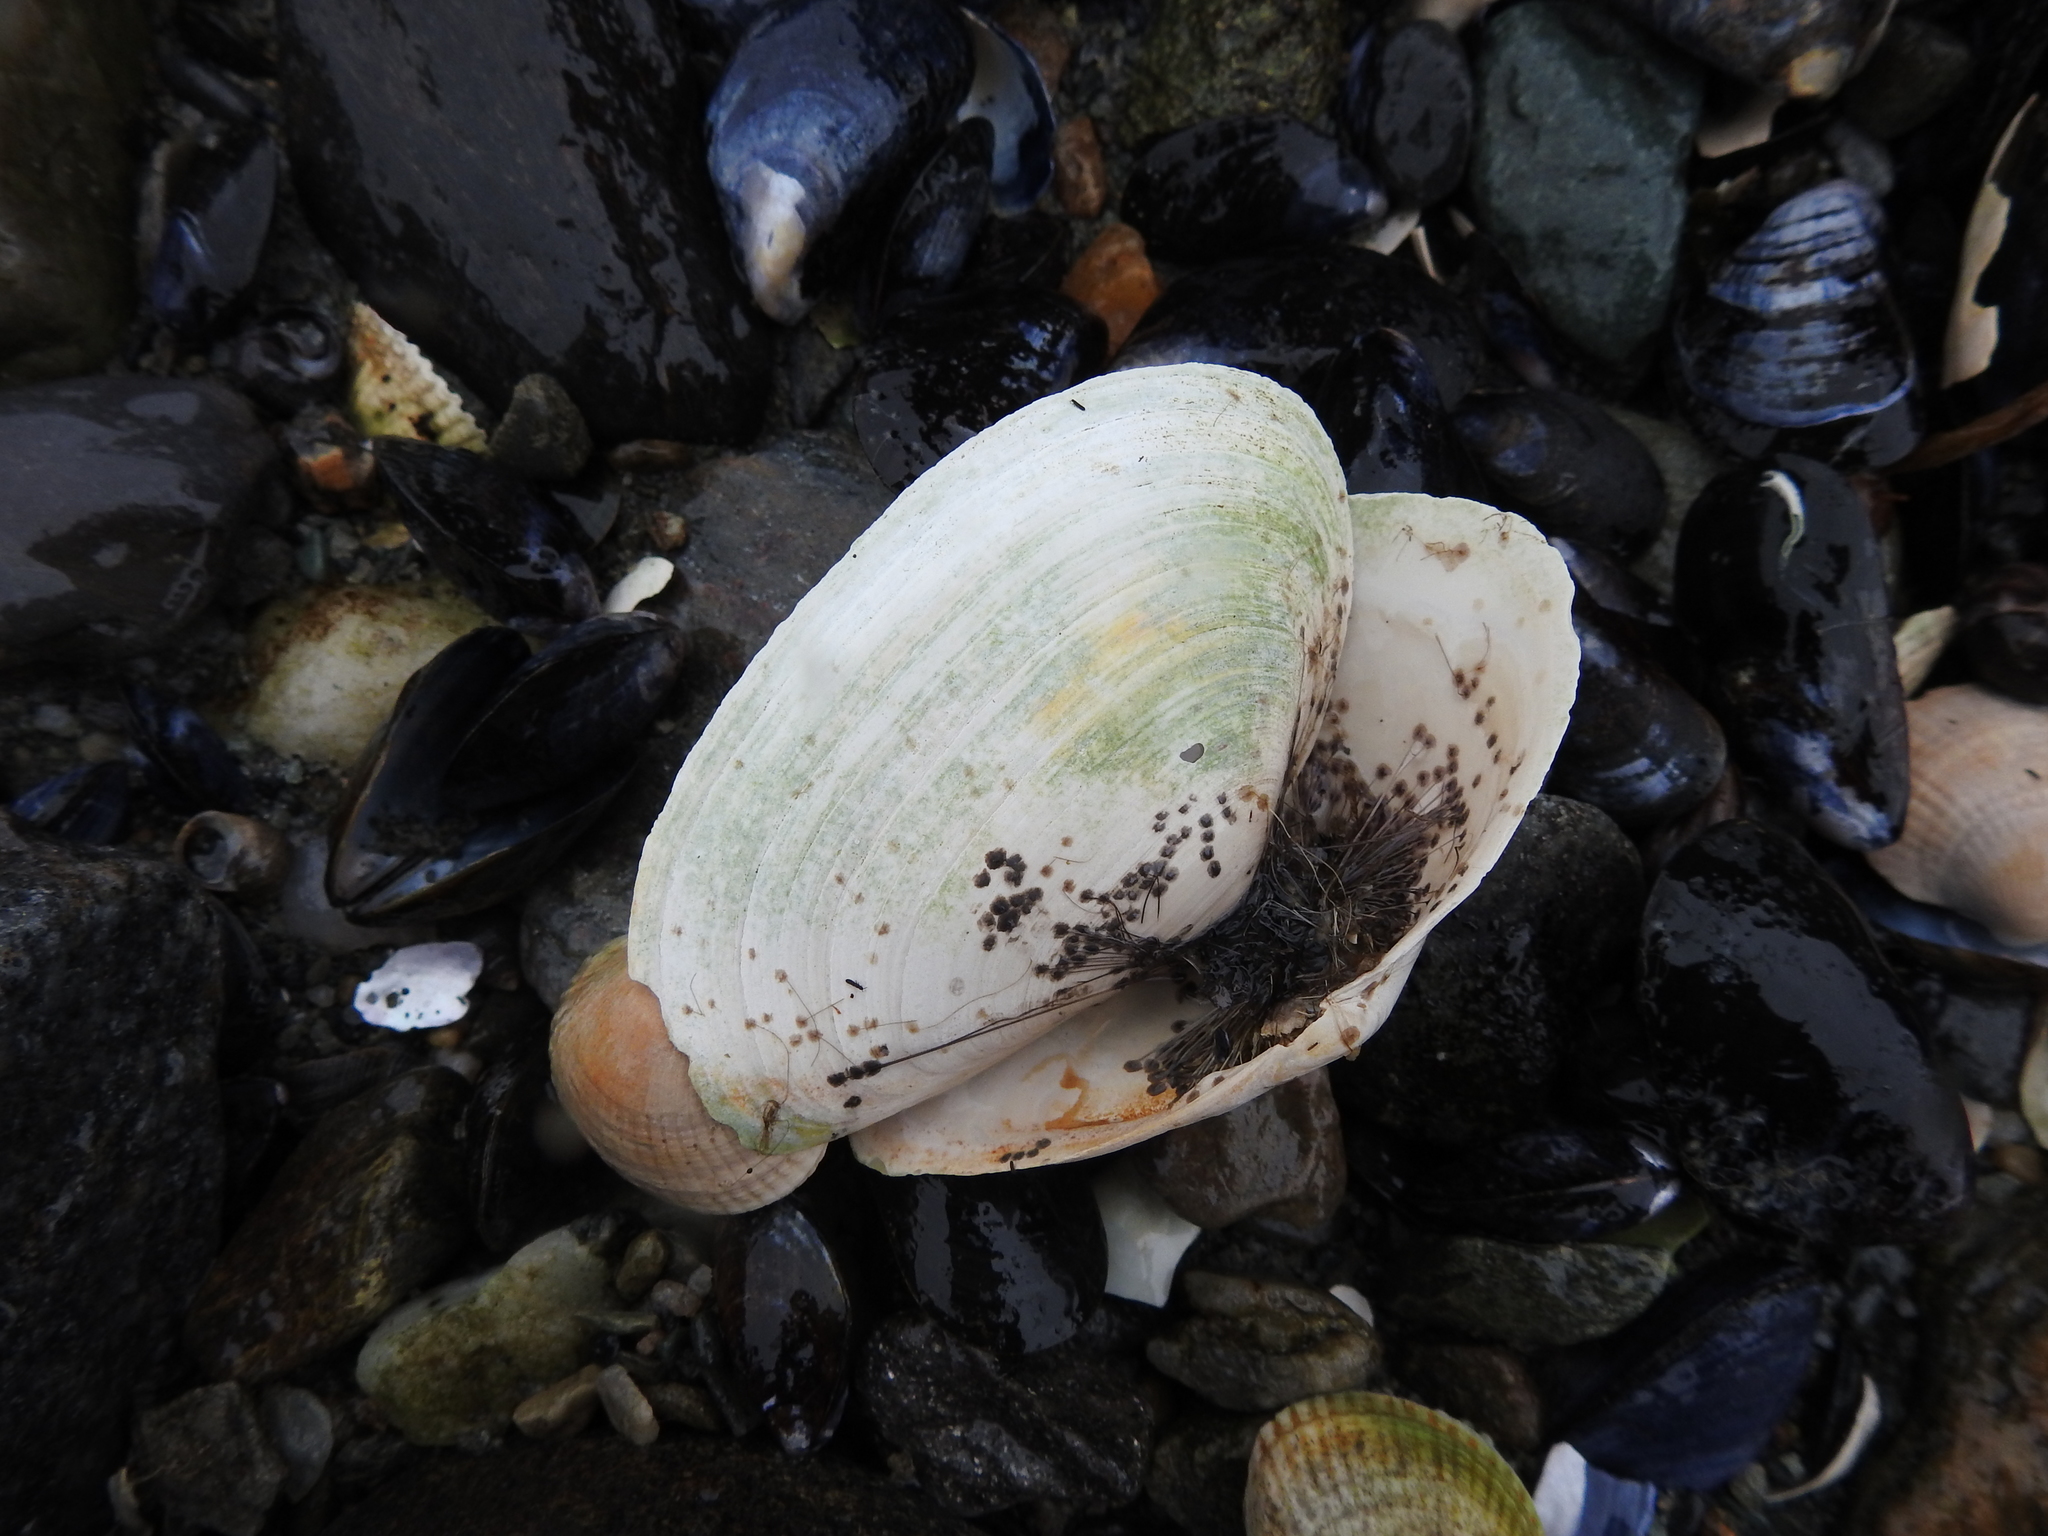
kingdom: Animalia
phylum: Mollusca
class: Bivalvia
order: Myida
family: Myidae
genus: Mya
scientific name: Mya arenaria
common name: Soft-shelled clam
